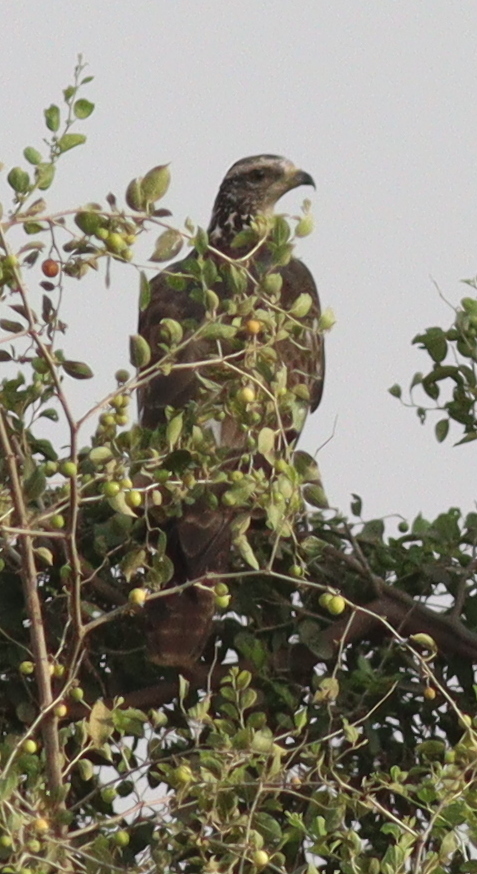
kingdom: Animalia
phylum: Chordata
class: Aves
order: Accipitriformes
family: Accipitridae
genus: Pernis
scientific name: Pernis ptilorhynchus
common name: Crested honey buzzard
